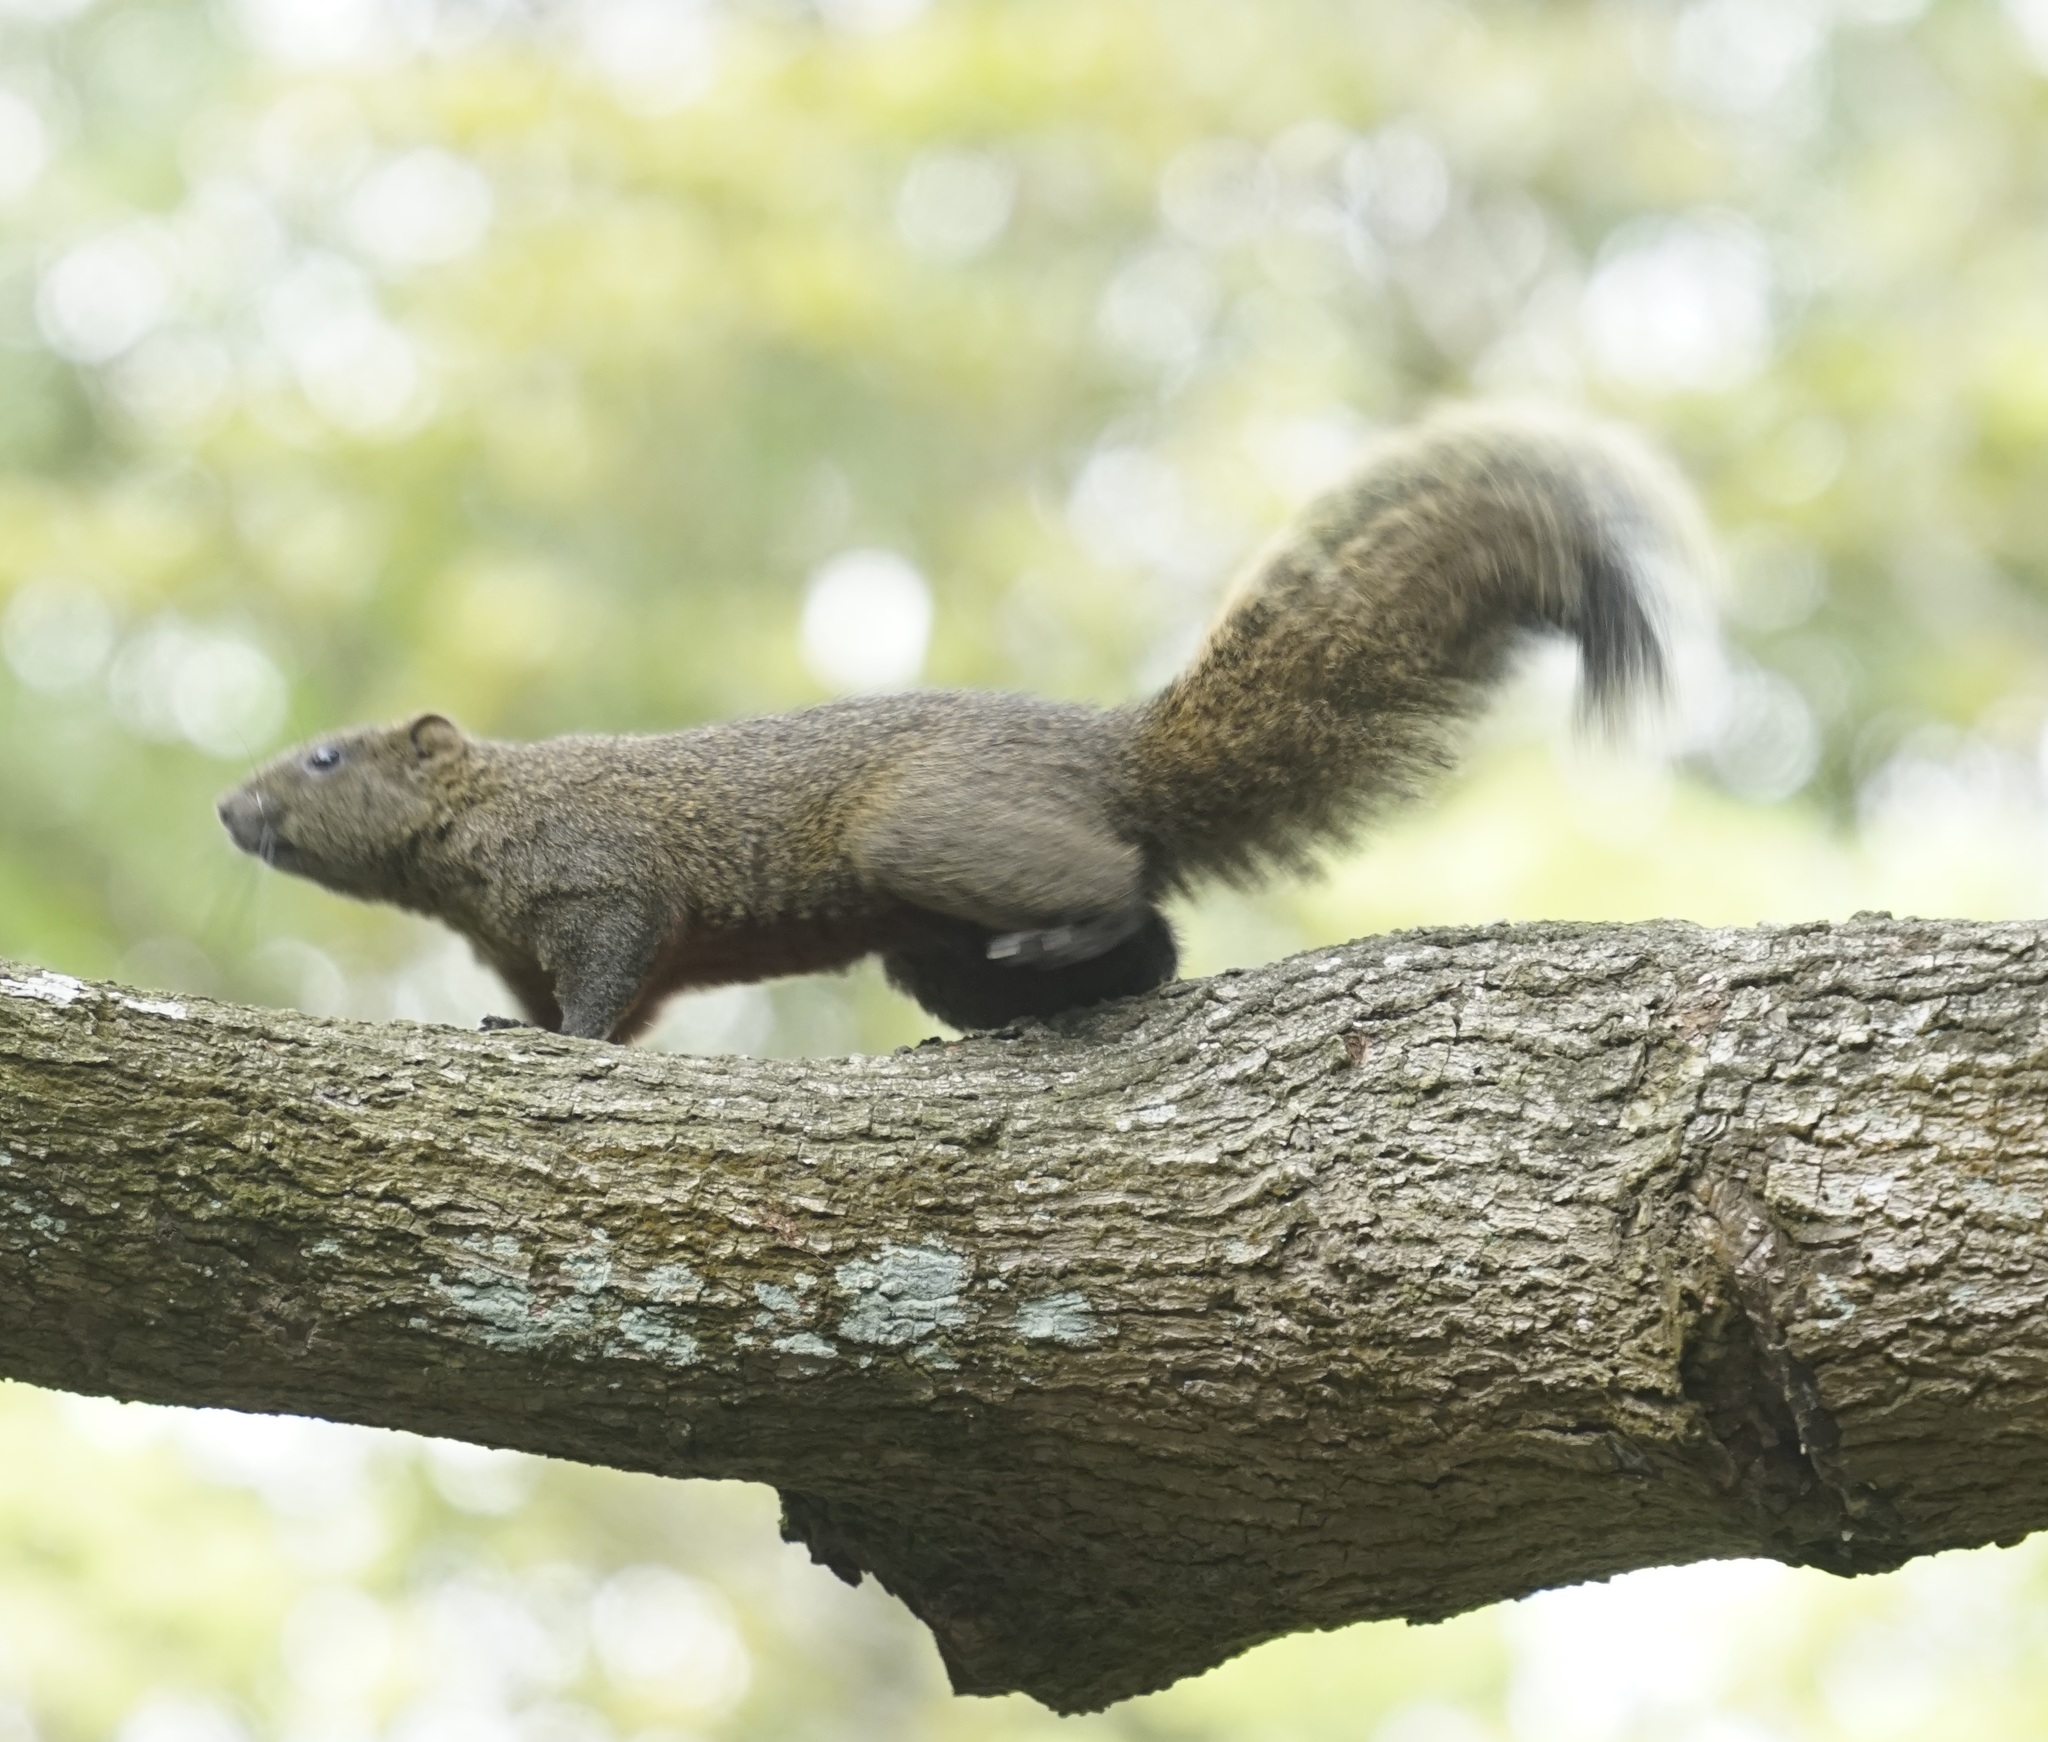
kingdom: Animalia
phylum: Chordata
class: Mammalia
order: Rodentia
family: Sciuridae
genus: Callosciurus
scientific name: Callosciurus erythraeus
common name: Pallas's squirrel
